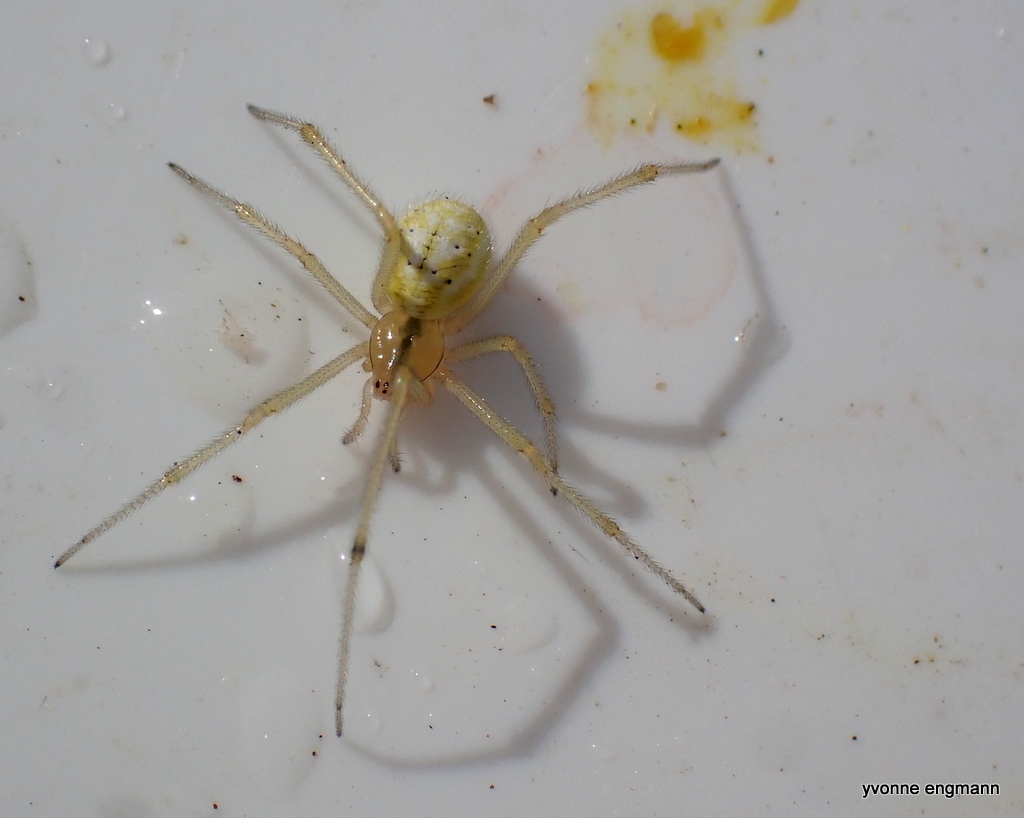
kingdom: Animalia
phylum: Arthropoda
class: Arachnida
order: Araneae
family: Theridiidae
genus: Enoplognatha
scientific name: Enoplognatha ovata
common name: Common candy-striped spider
